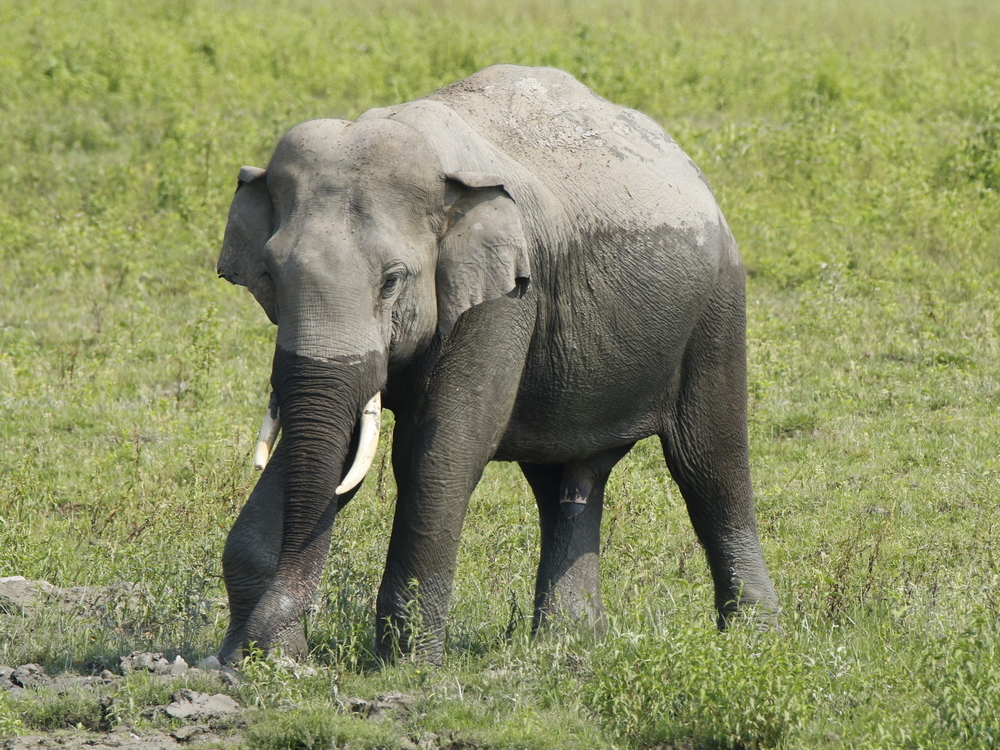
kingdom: Animalia
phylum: Chordata
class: Mammalia
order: Proboscidea
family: Elephantidae
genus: Elephas
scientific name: Elephas maximus
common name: Asian elephant
